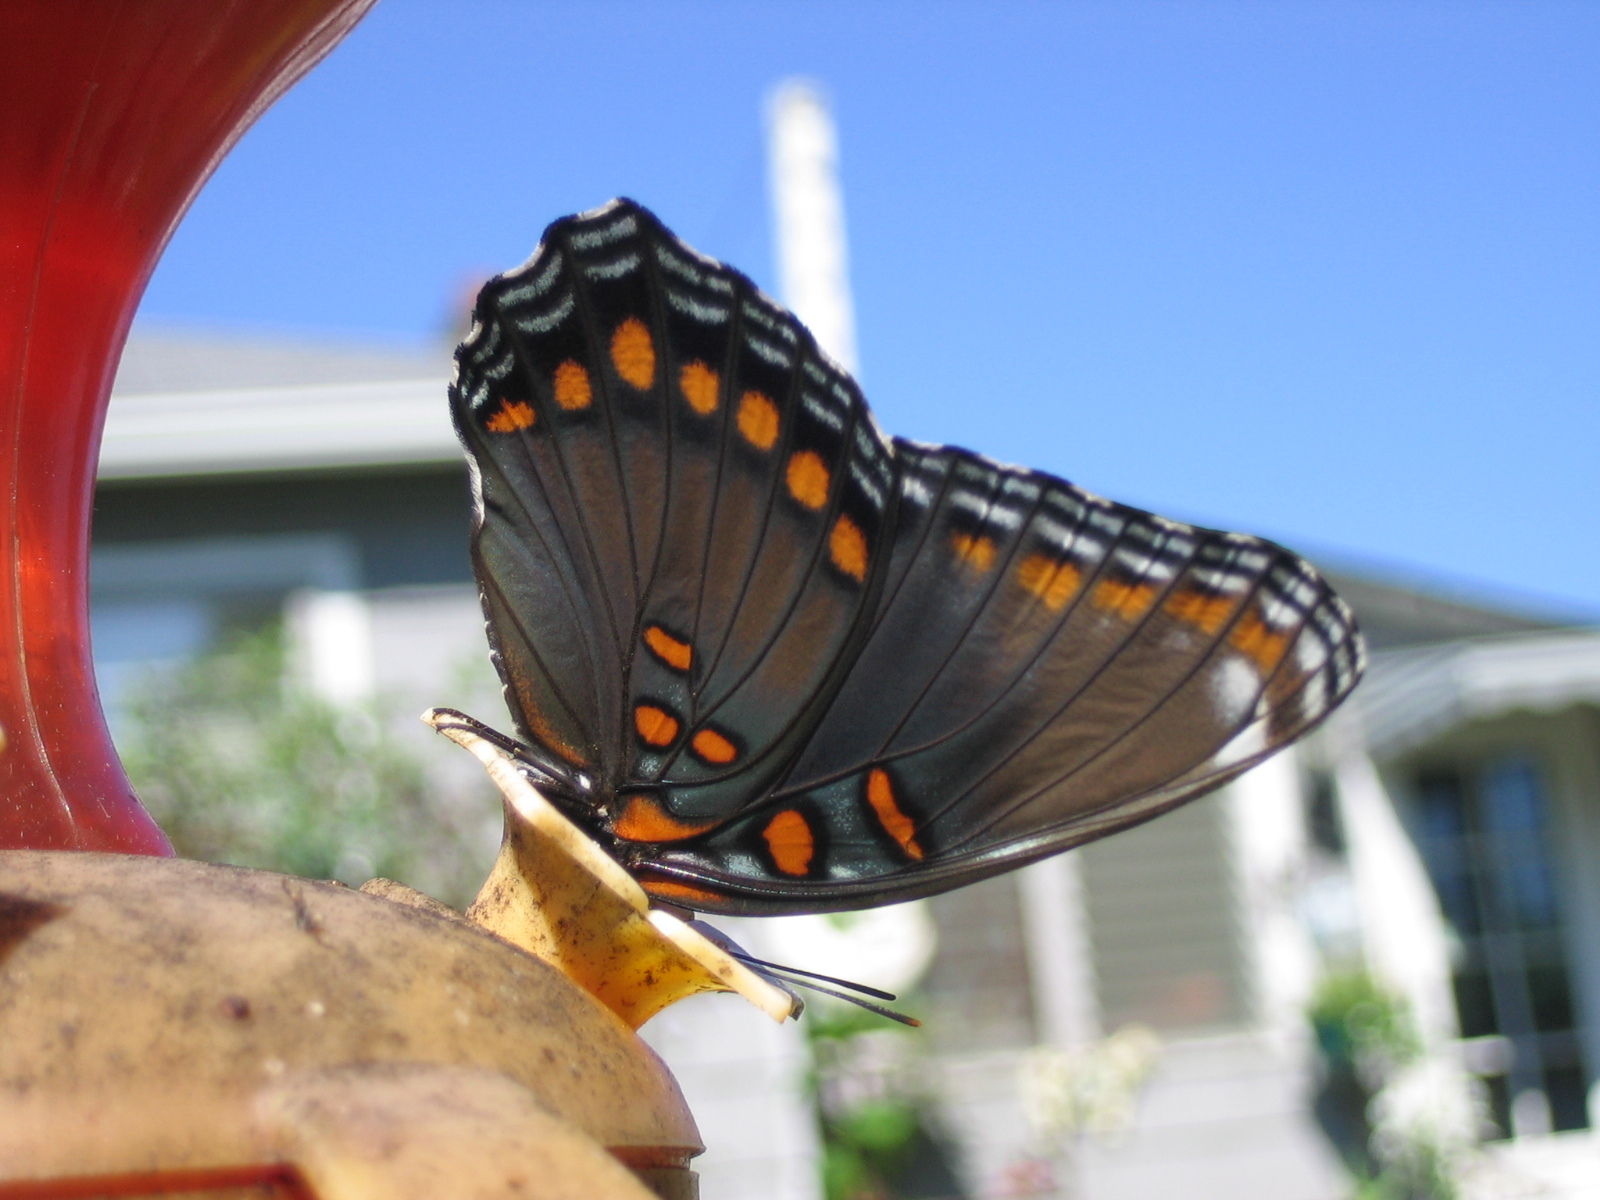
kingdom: Animalia
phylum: Arthropoda
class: Insecta
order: Lepidoptera
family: Nymphalidae
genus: Limenitis
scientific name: Limenitis astyanax
